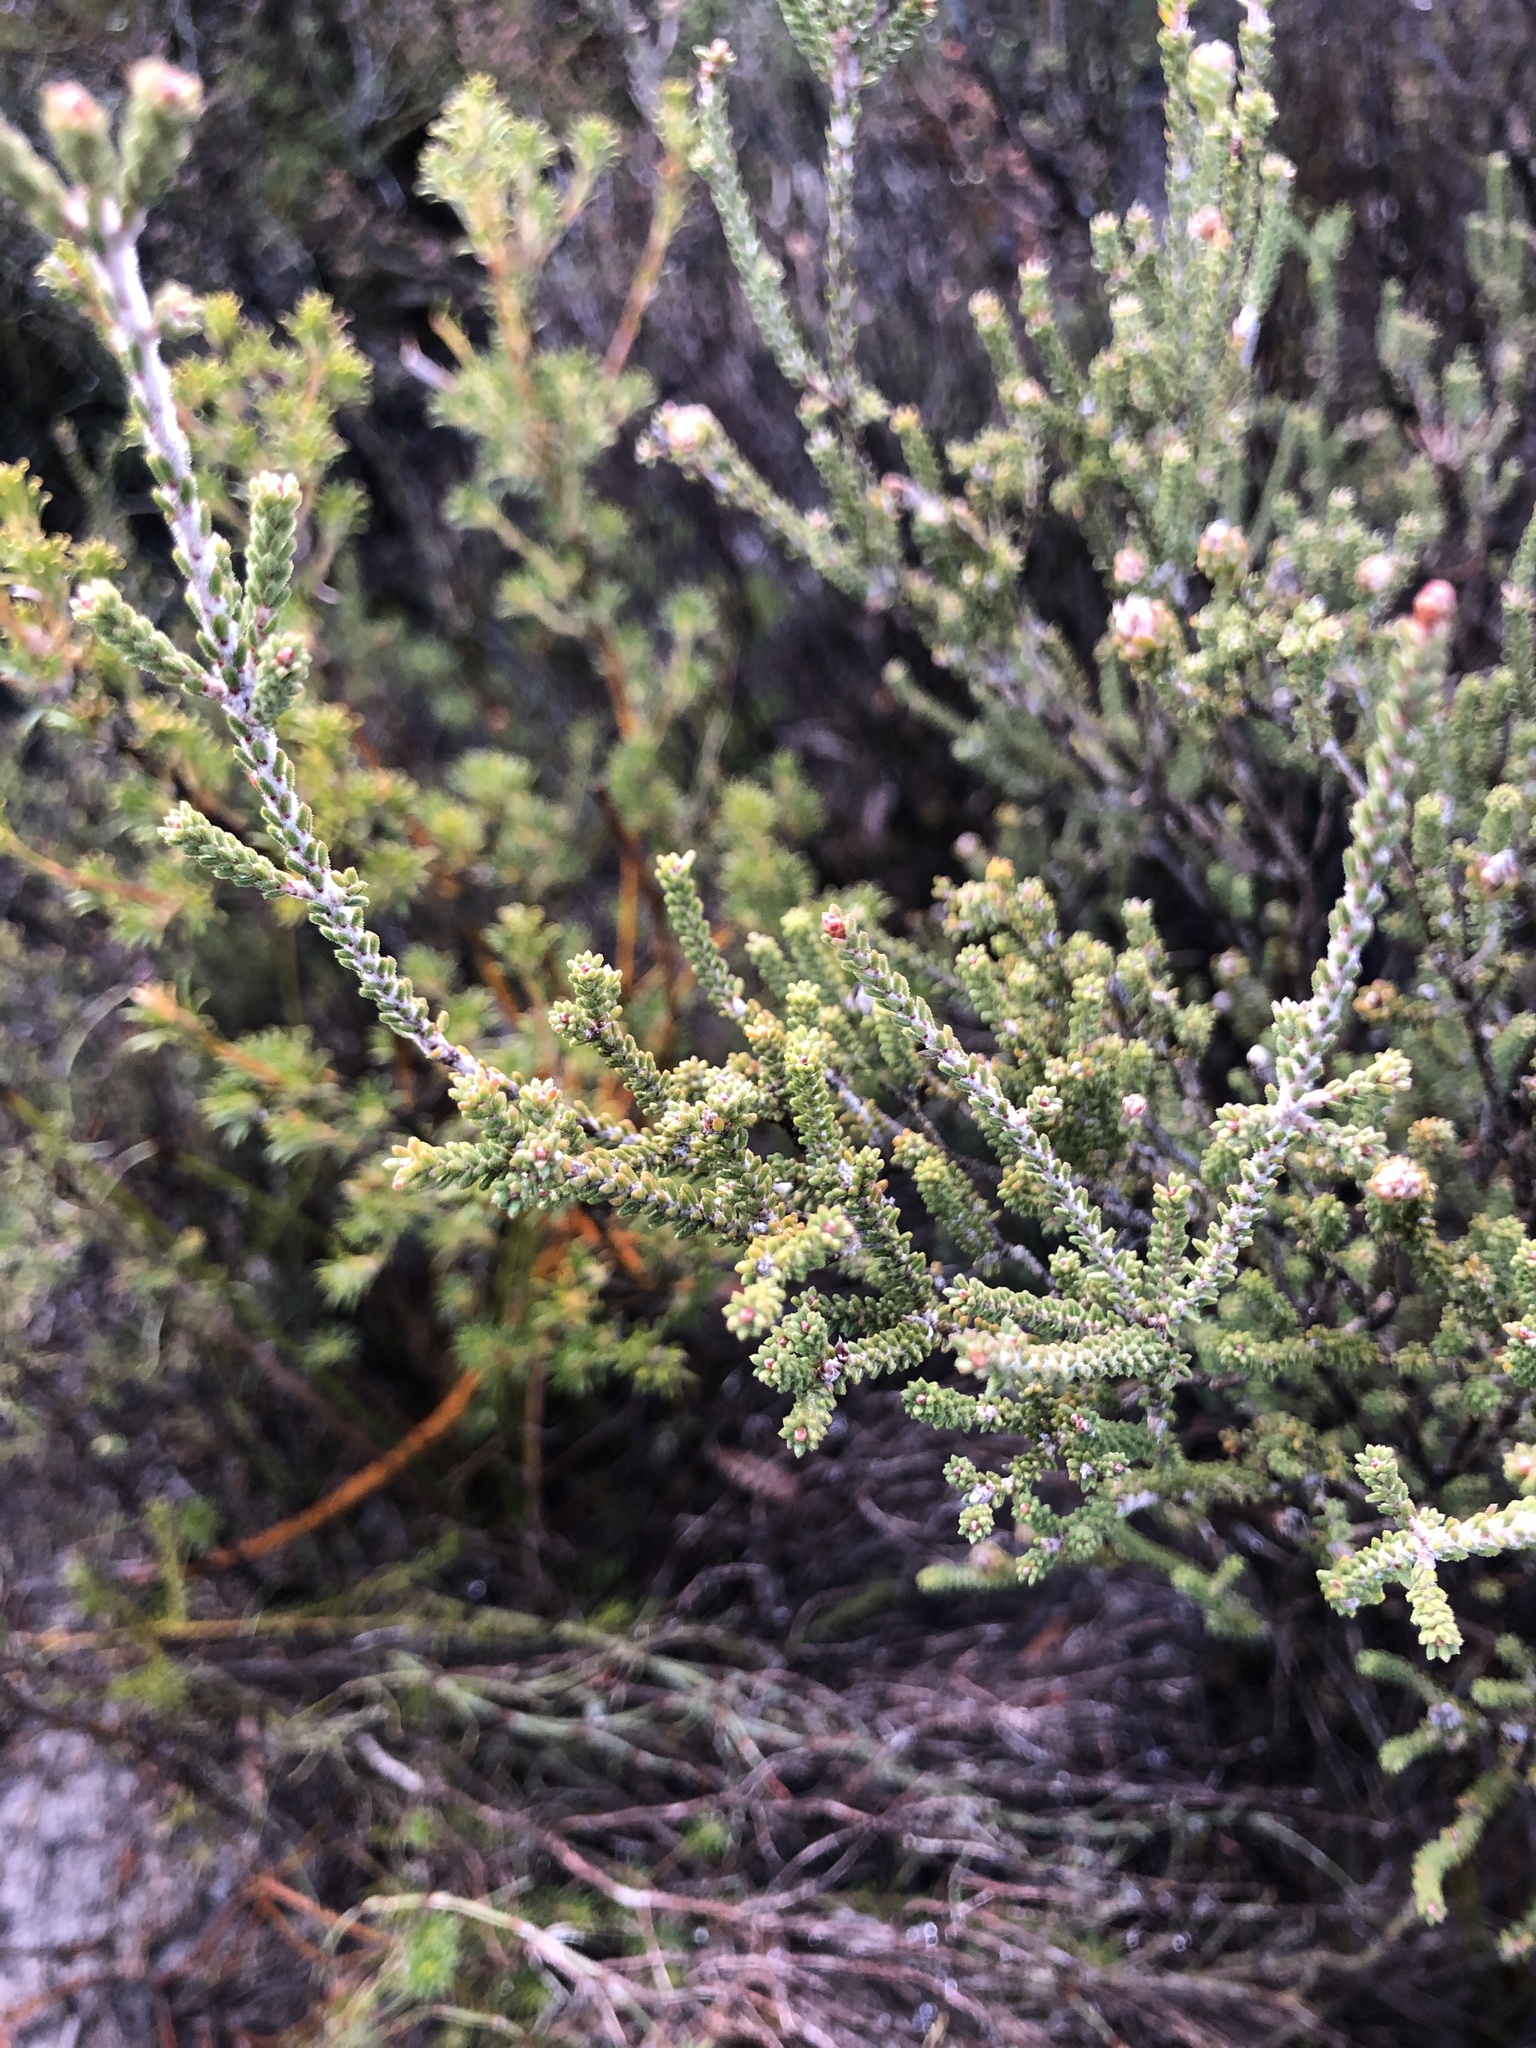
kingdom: Plantae
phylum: Tracheophyta
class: Magnoliopsida
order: Myrtales
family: Myrtaceae
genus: Calytrix
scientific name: Calytrix alpestris
